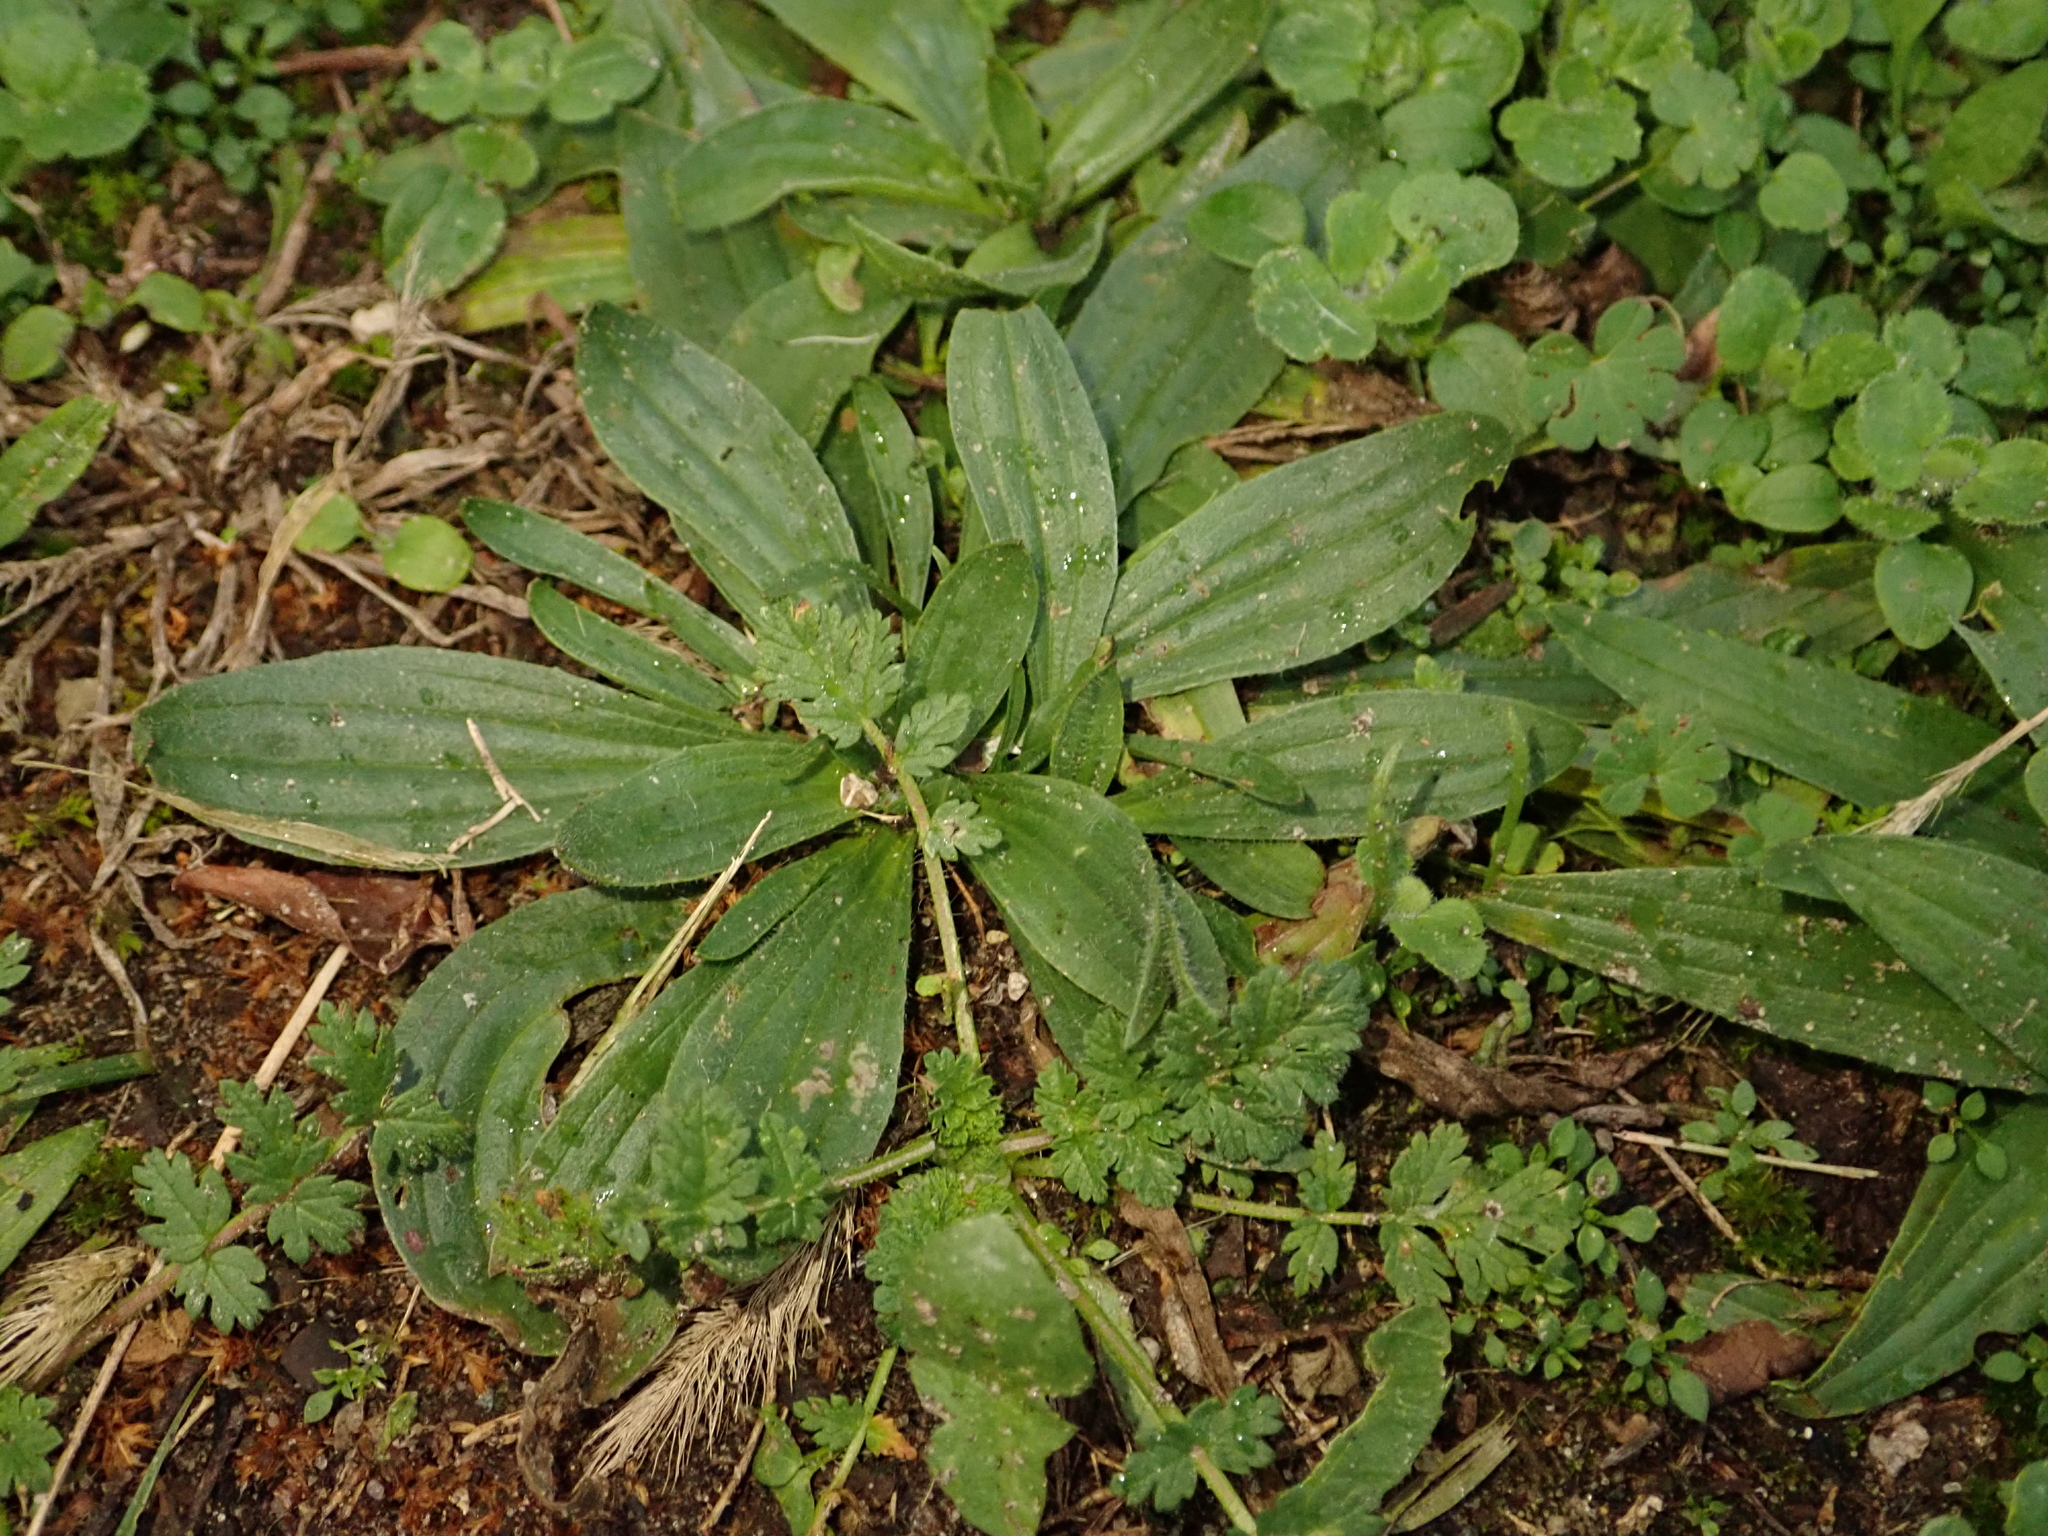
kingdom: Plantae
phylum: Tracheophyta
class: Magnoliopsida
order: Lamiales
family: Plantaginaceae
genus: Plantago
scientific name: Plantago lanceolata
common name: Ribwort plantain
